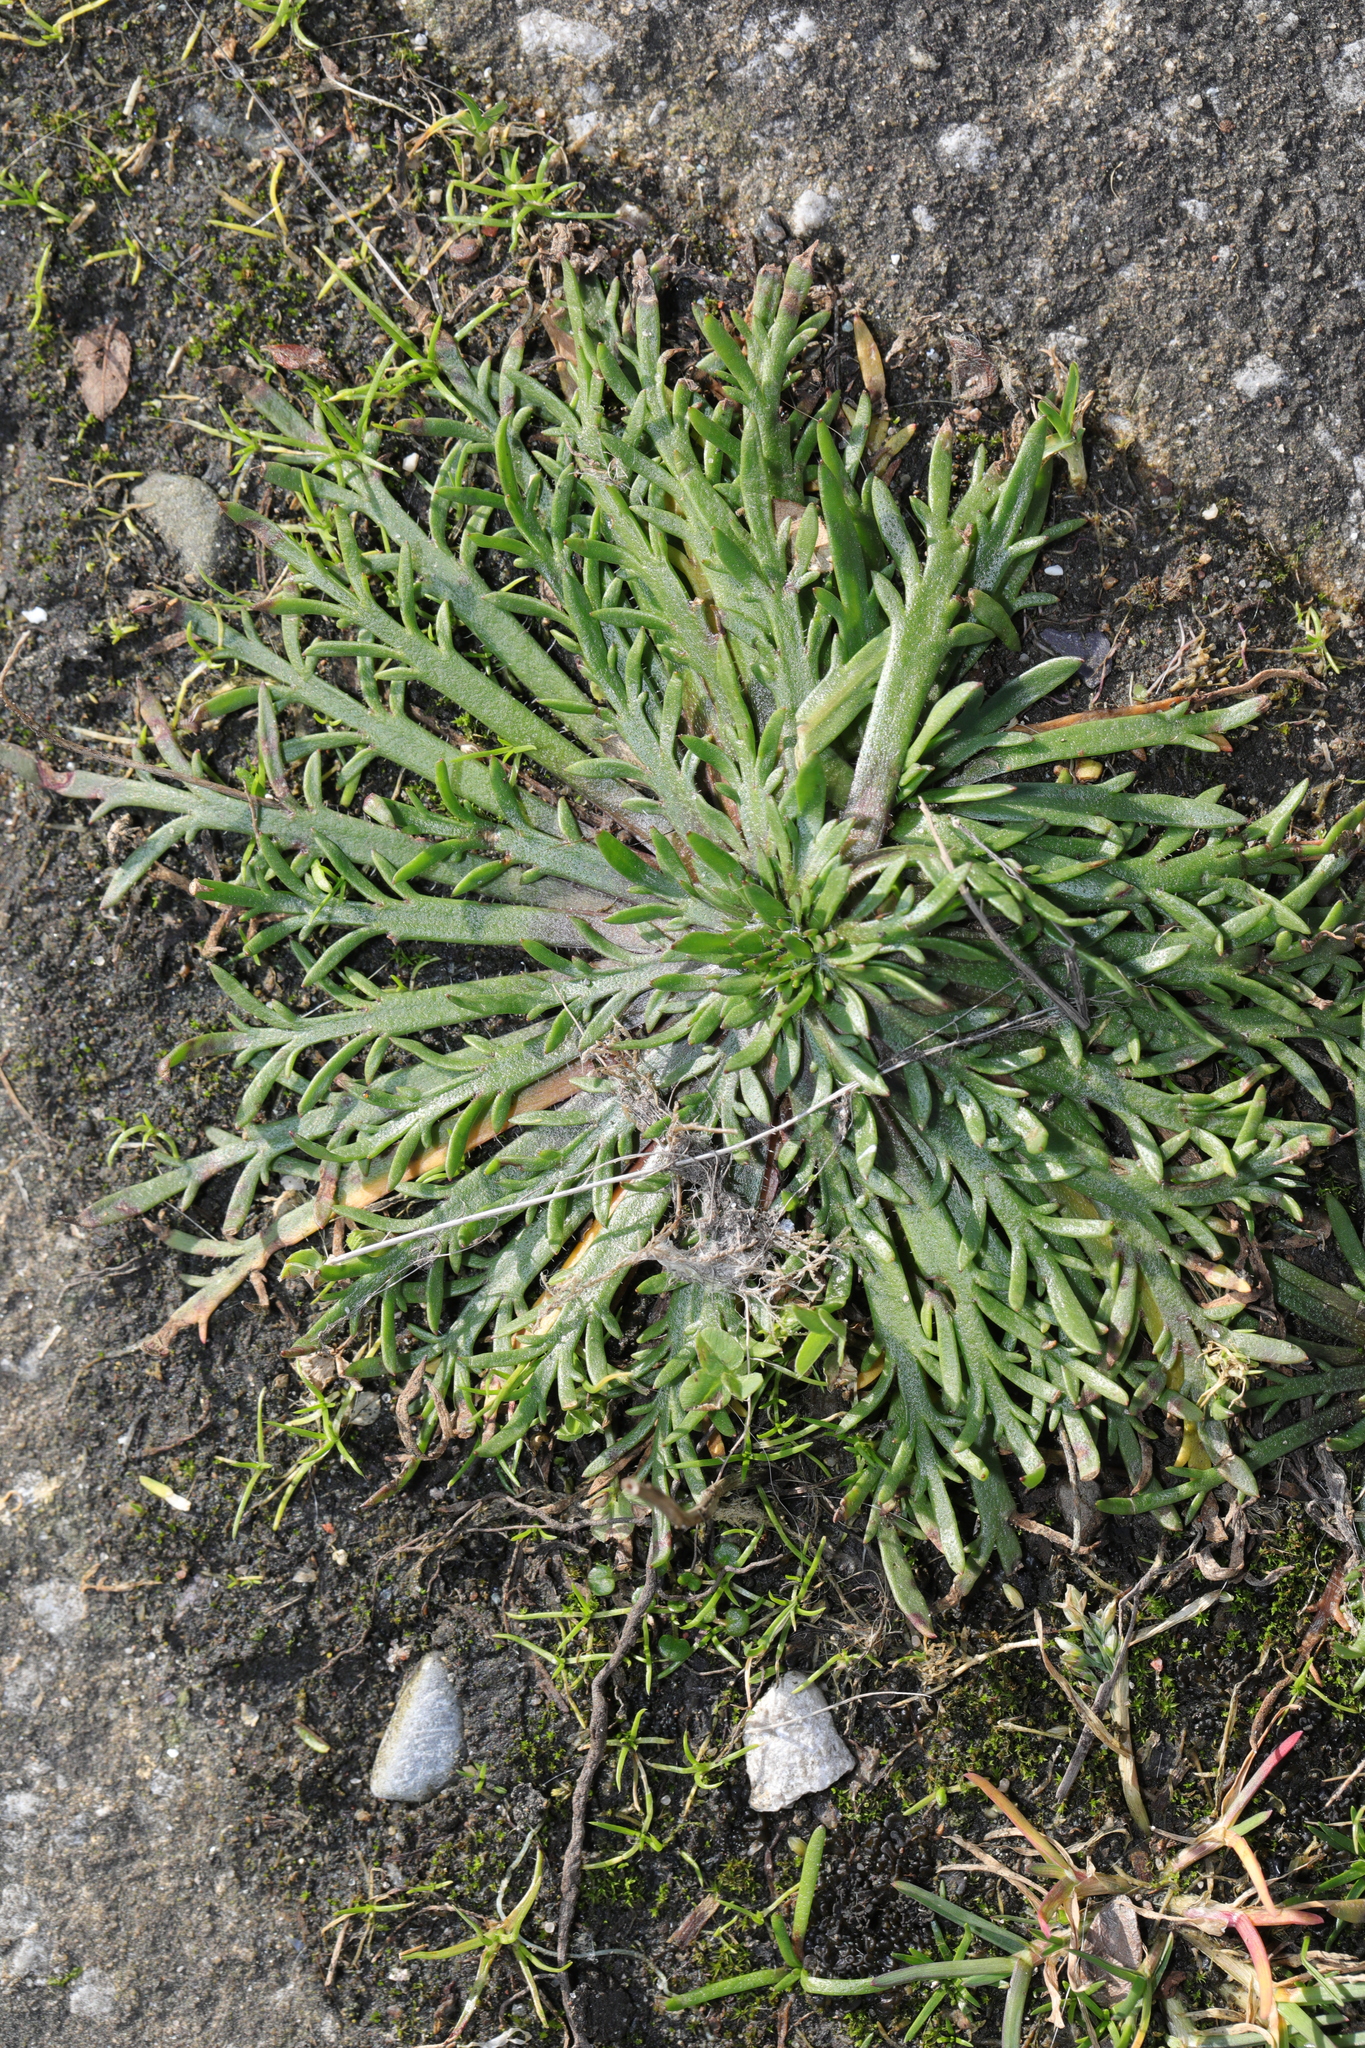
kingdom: Plantae
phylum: Tracheophyta
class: Magnoliopsida
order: Lamiales
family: Plantaginaceae
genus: Plantago
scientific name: Plantago coronopus
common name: Buck's-horn plantain
